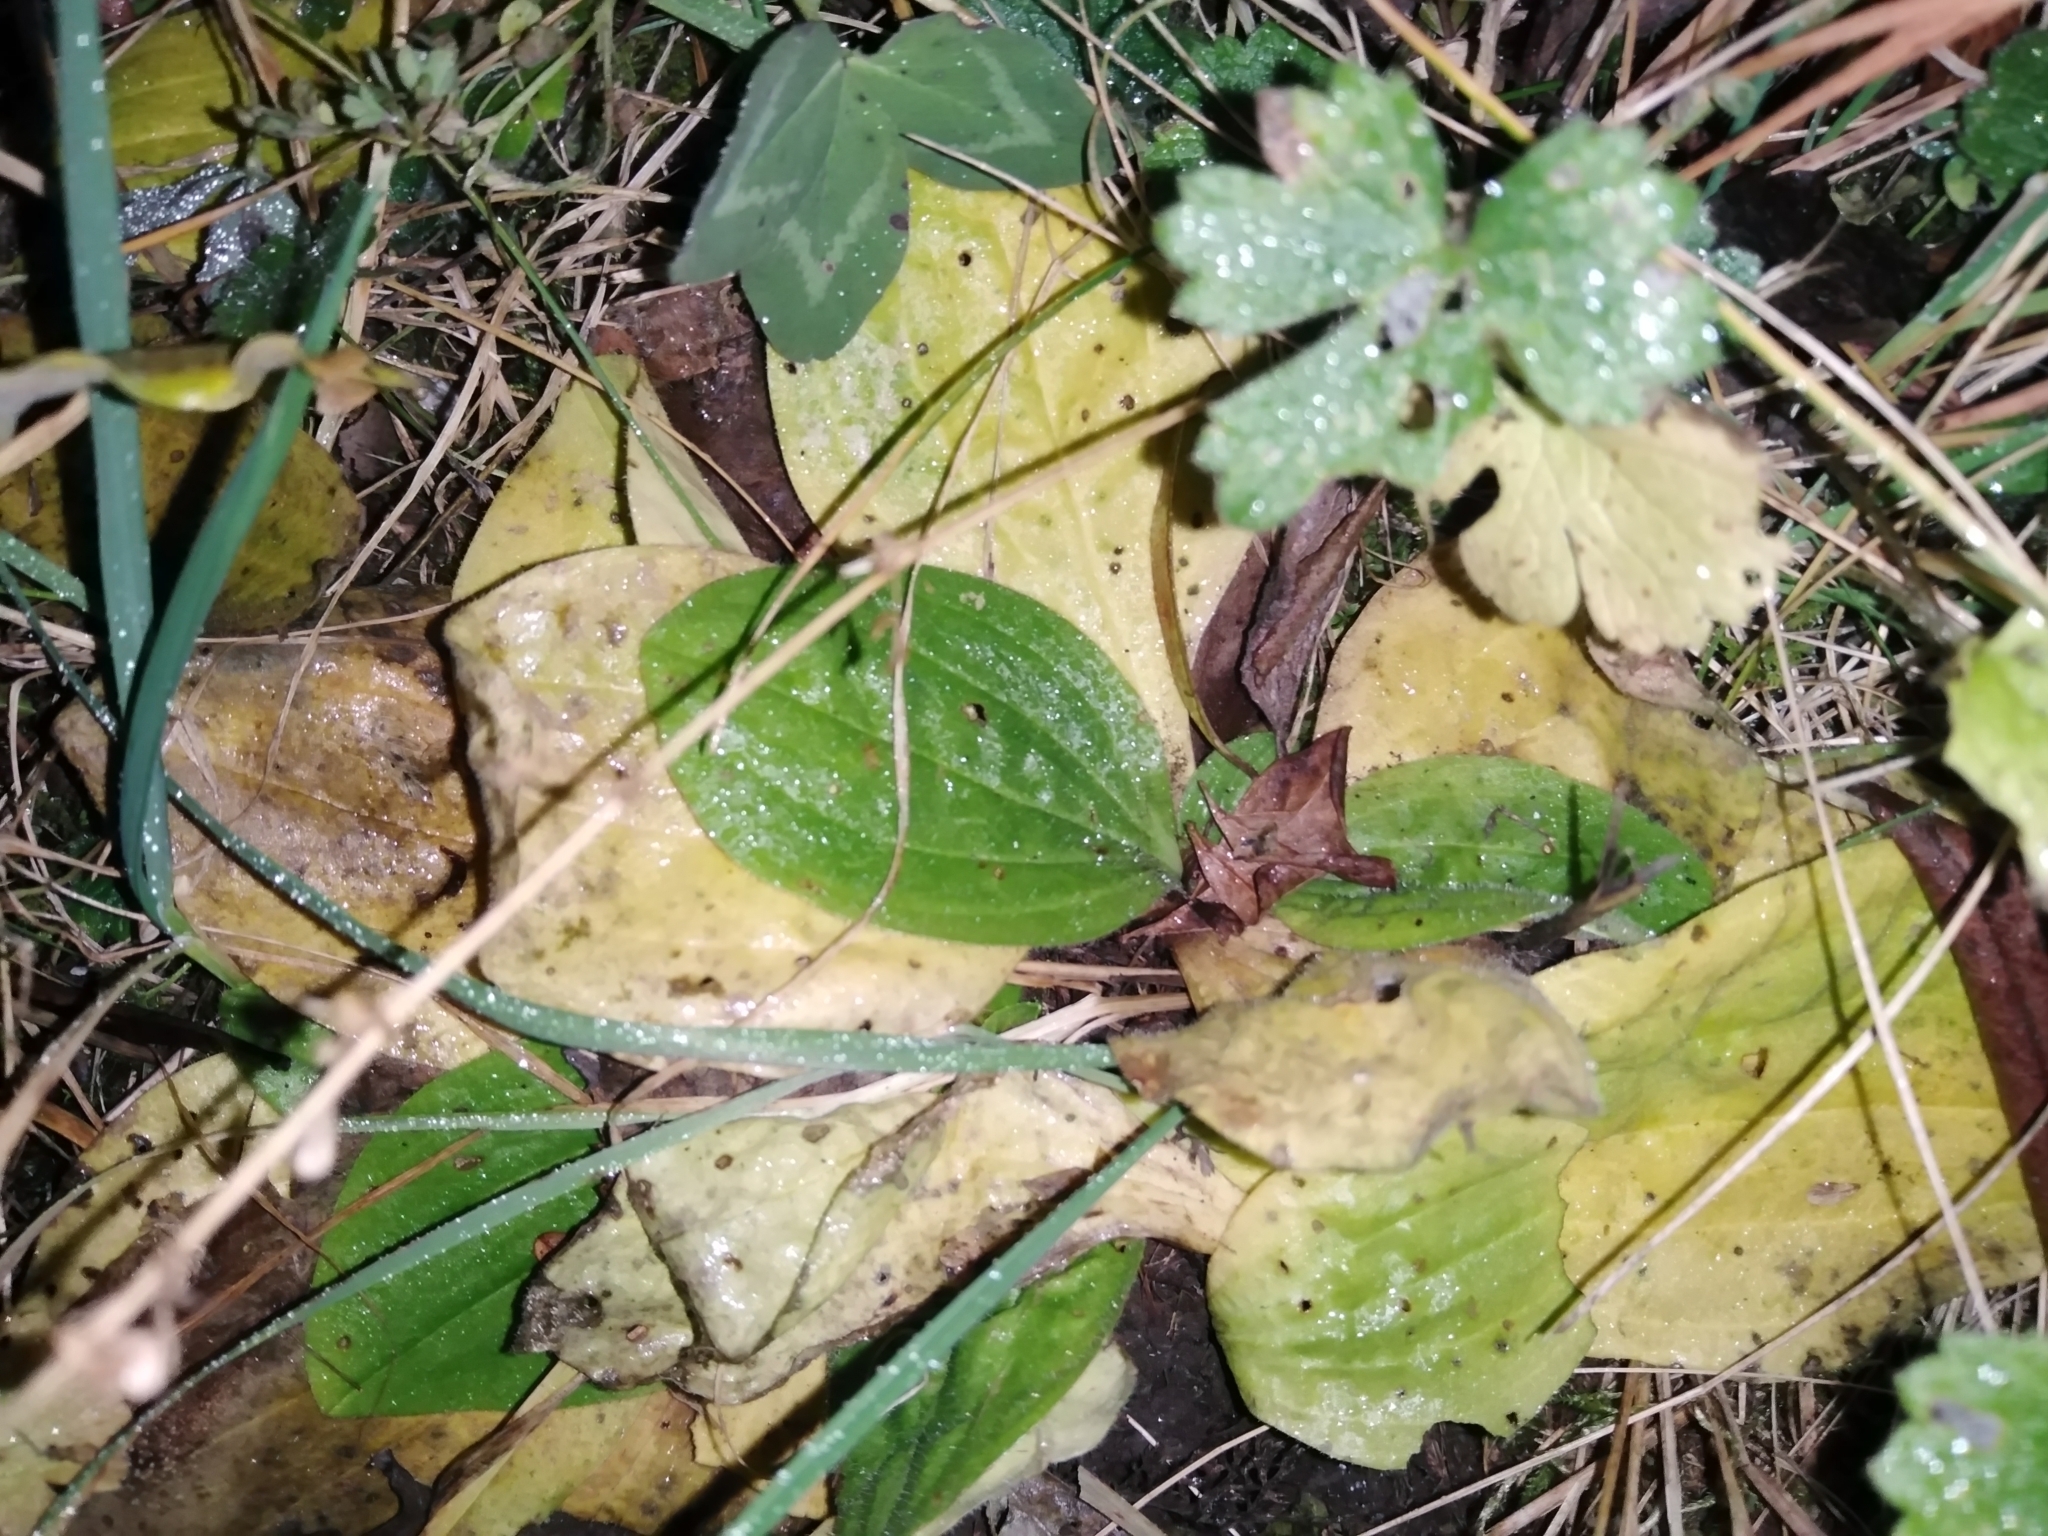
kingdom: Plantae
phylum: Tracheophyta
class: Magnoliopsida
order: Lamiales
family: Plantaginaceae
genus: Plantago
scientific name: Plantago media
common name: Hoary plantain
